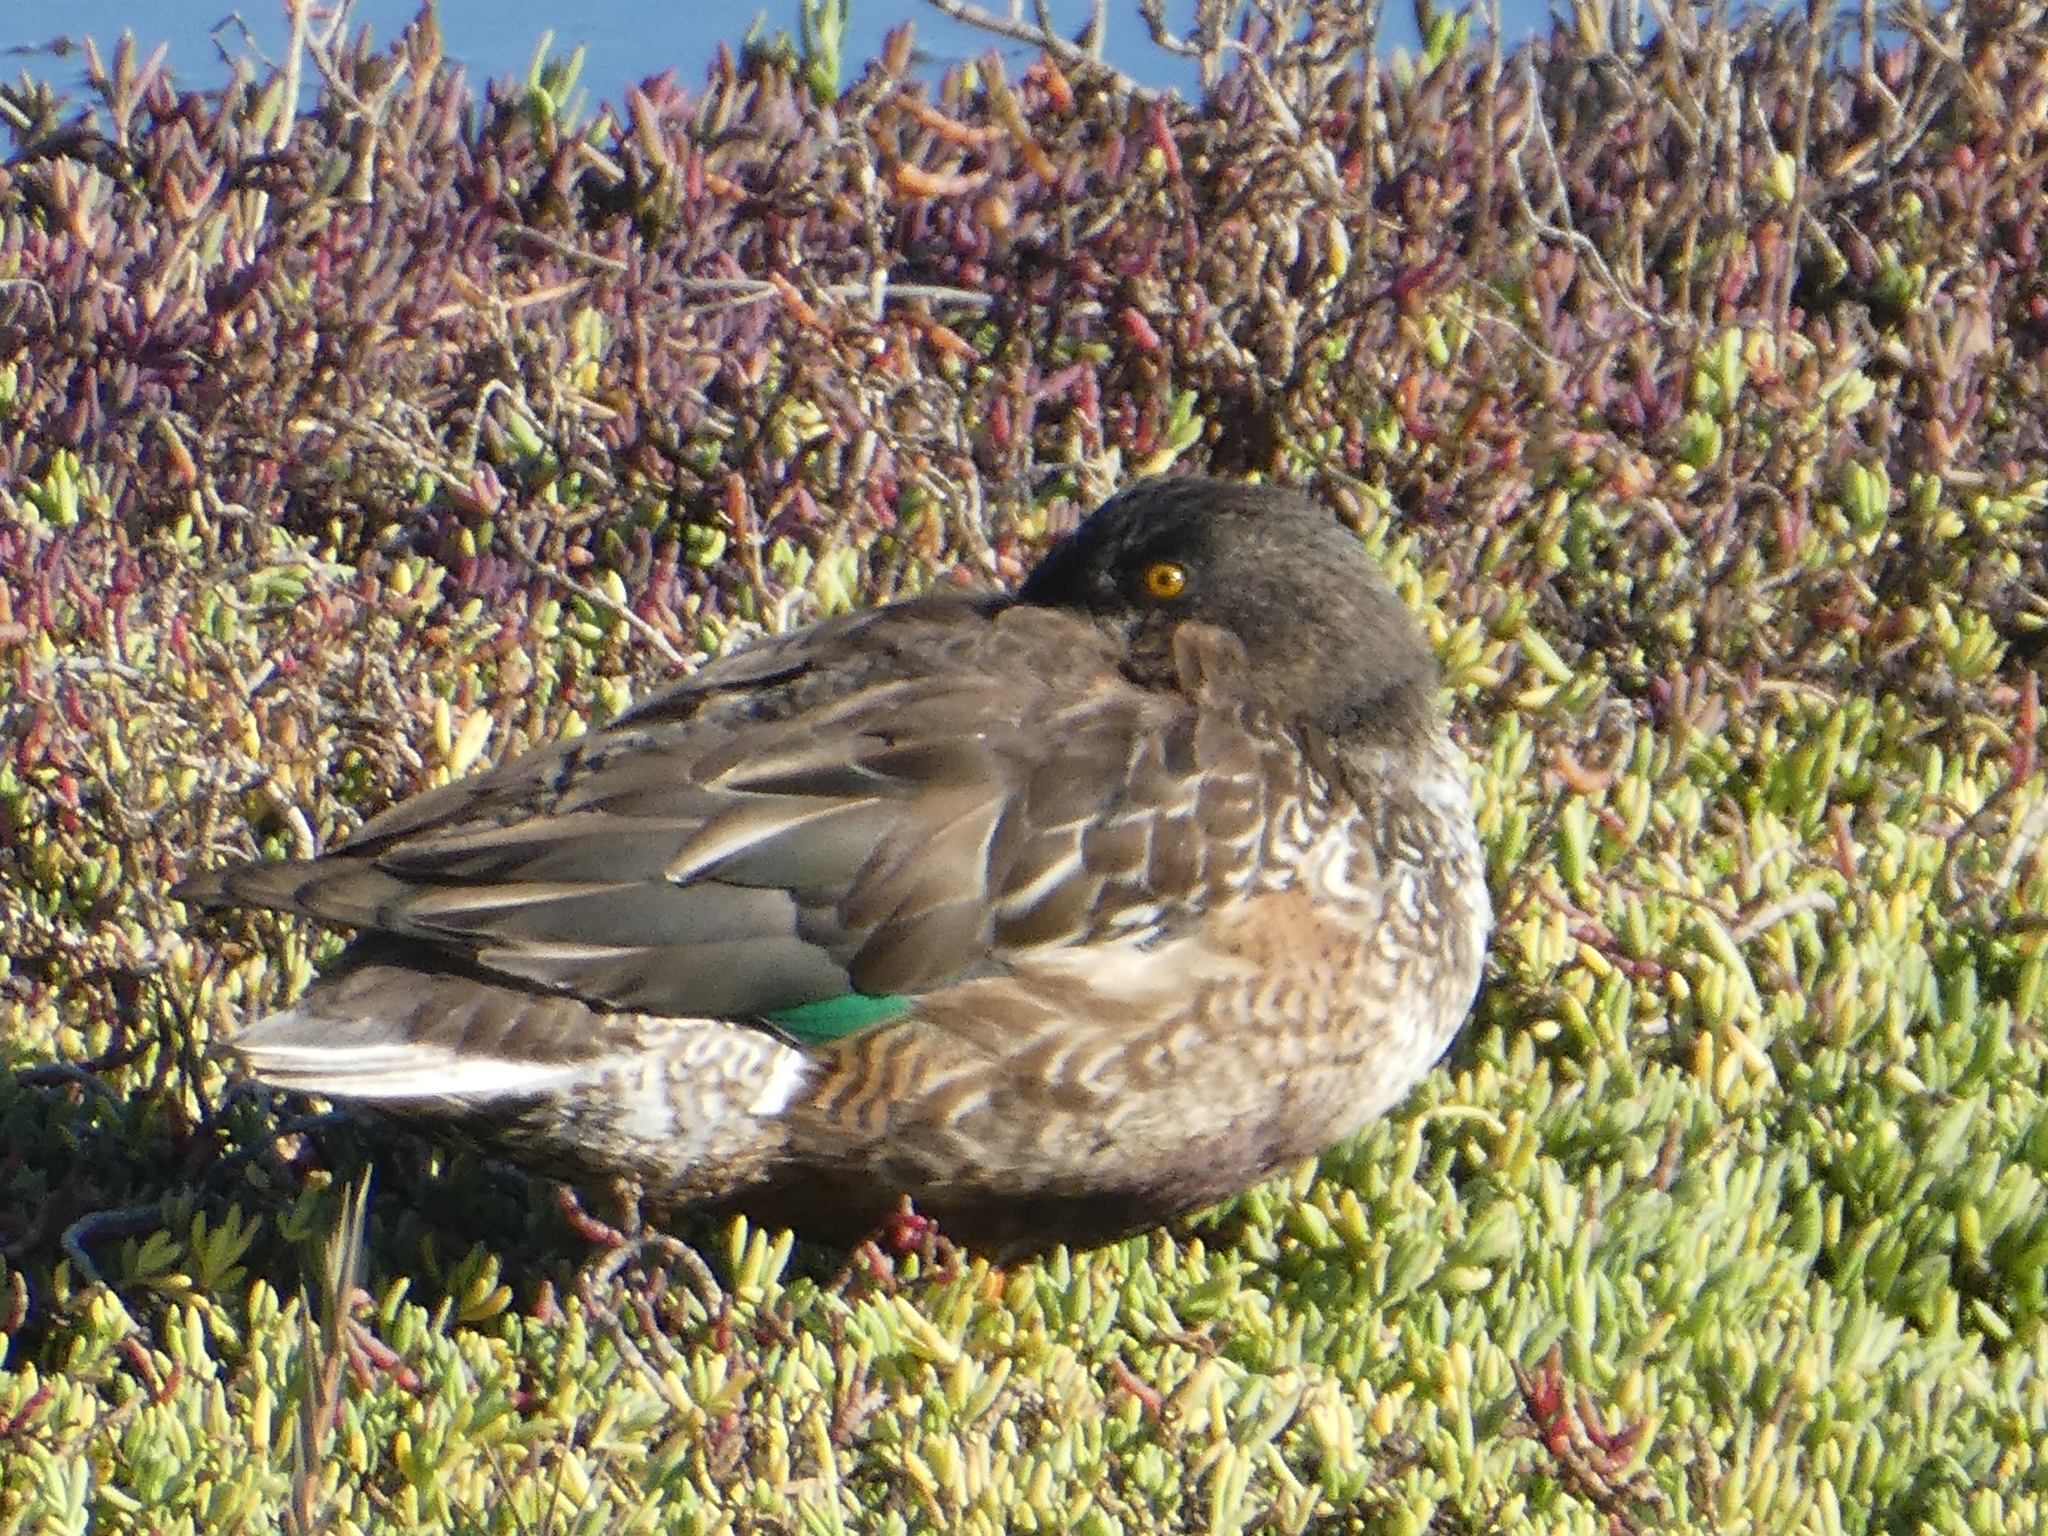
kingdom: Animalia
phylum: Chordata
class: Aves
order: Anseriformes
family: Anatidae
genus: Spatula
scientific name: Spatula clypeata
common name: Northern shoveler
